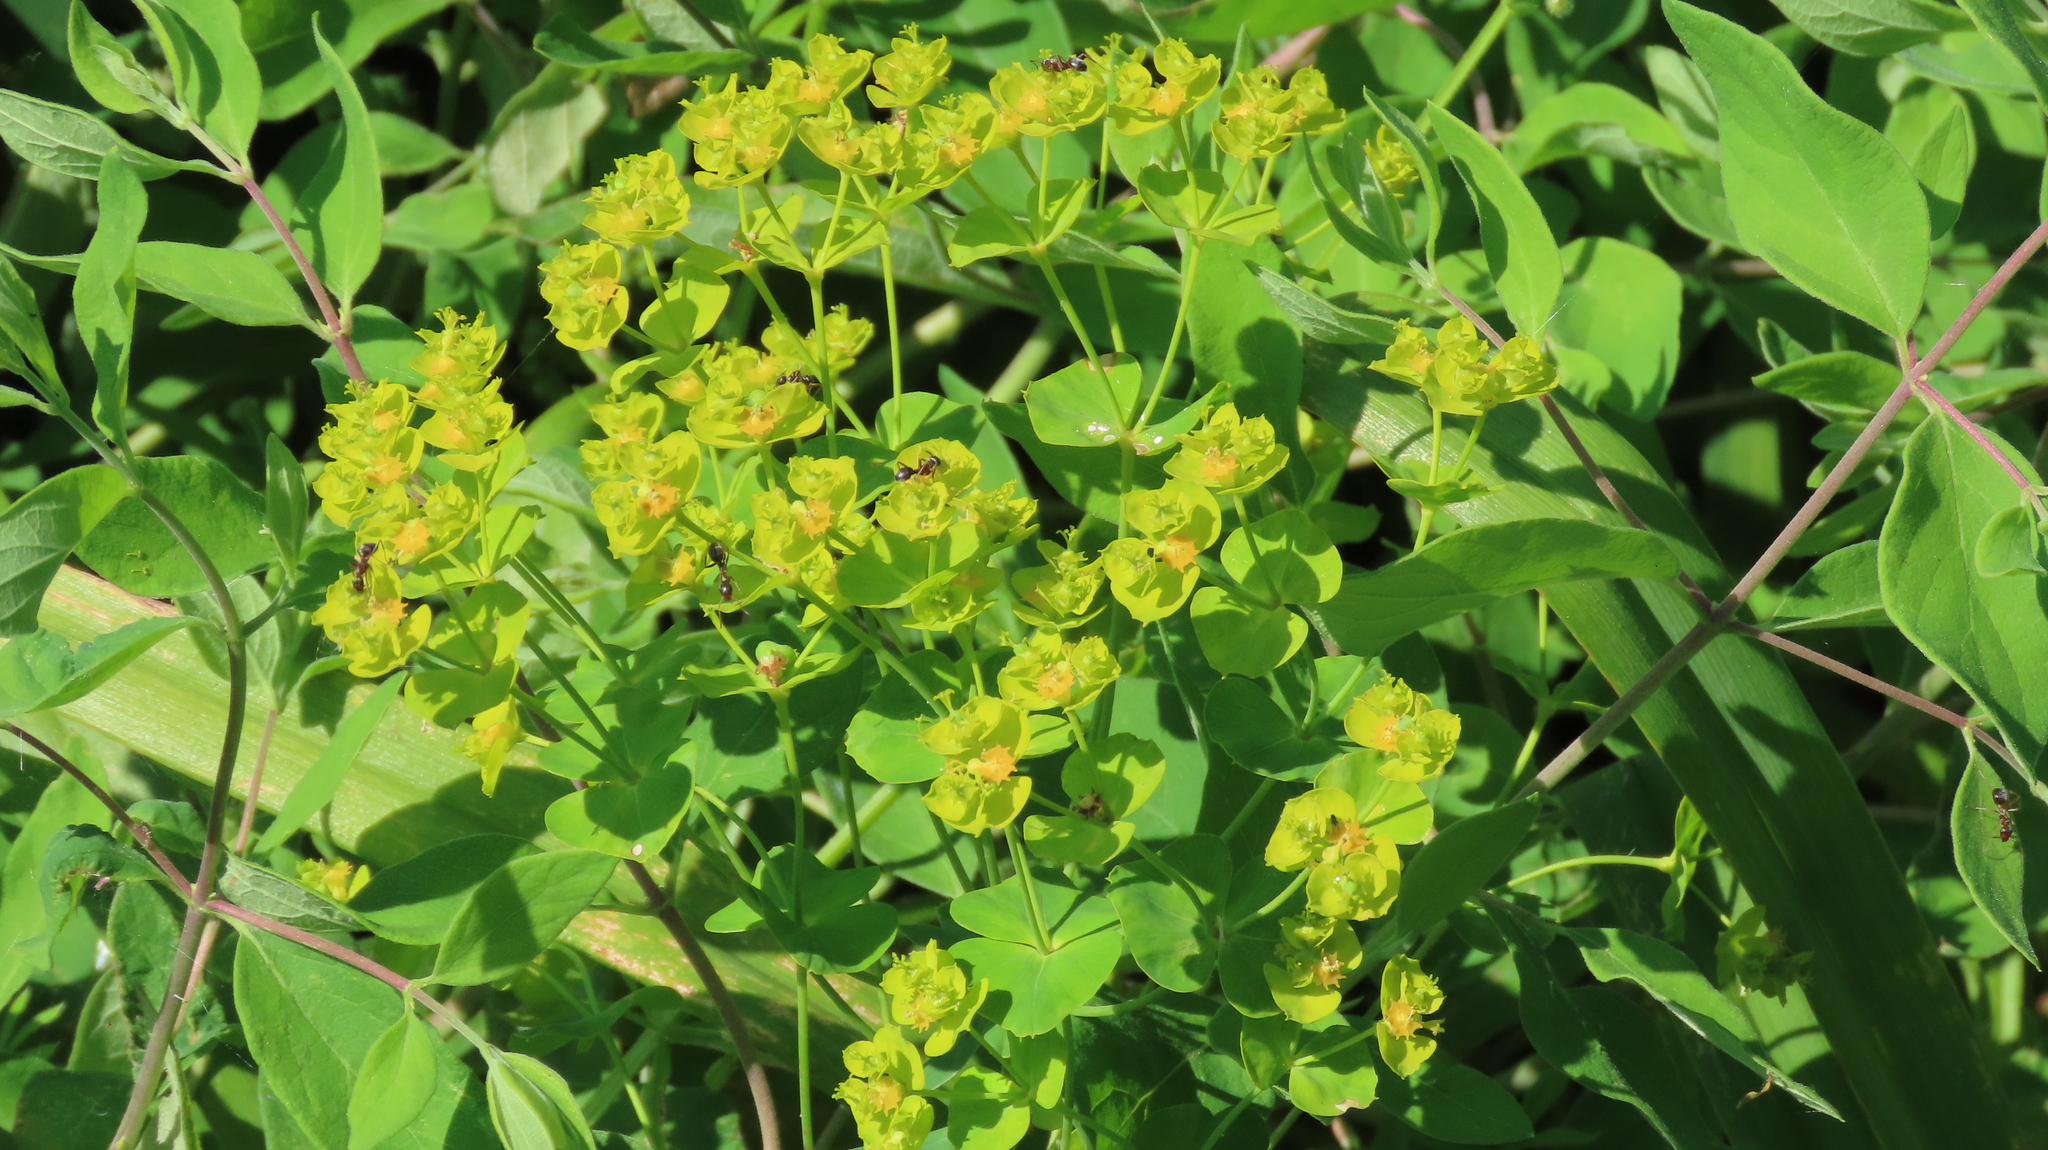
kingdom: Plantae
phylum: Tracheophyta
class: Magnoliopsida
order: Malpighiales
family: Euphorbiaceae
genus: Euphorbia
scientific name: Euphorbia virgata
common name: Leafy spurge
